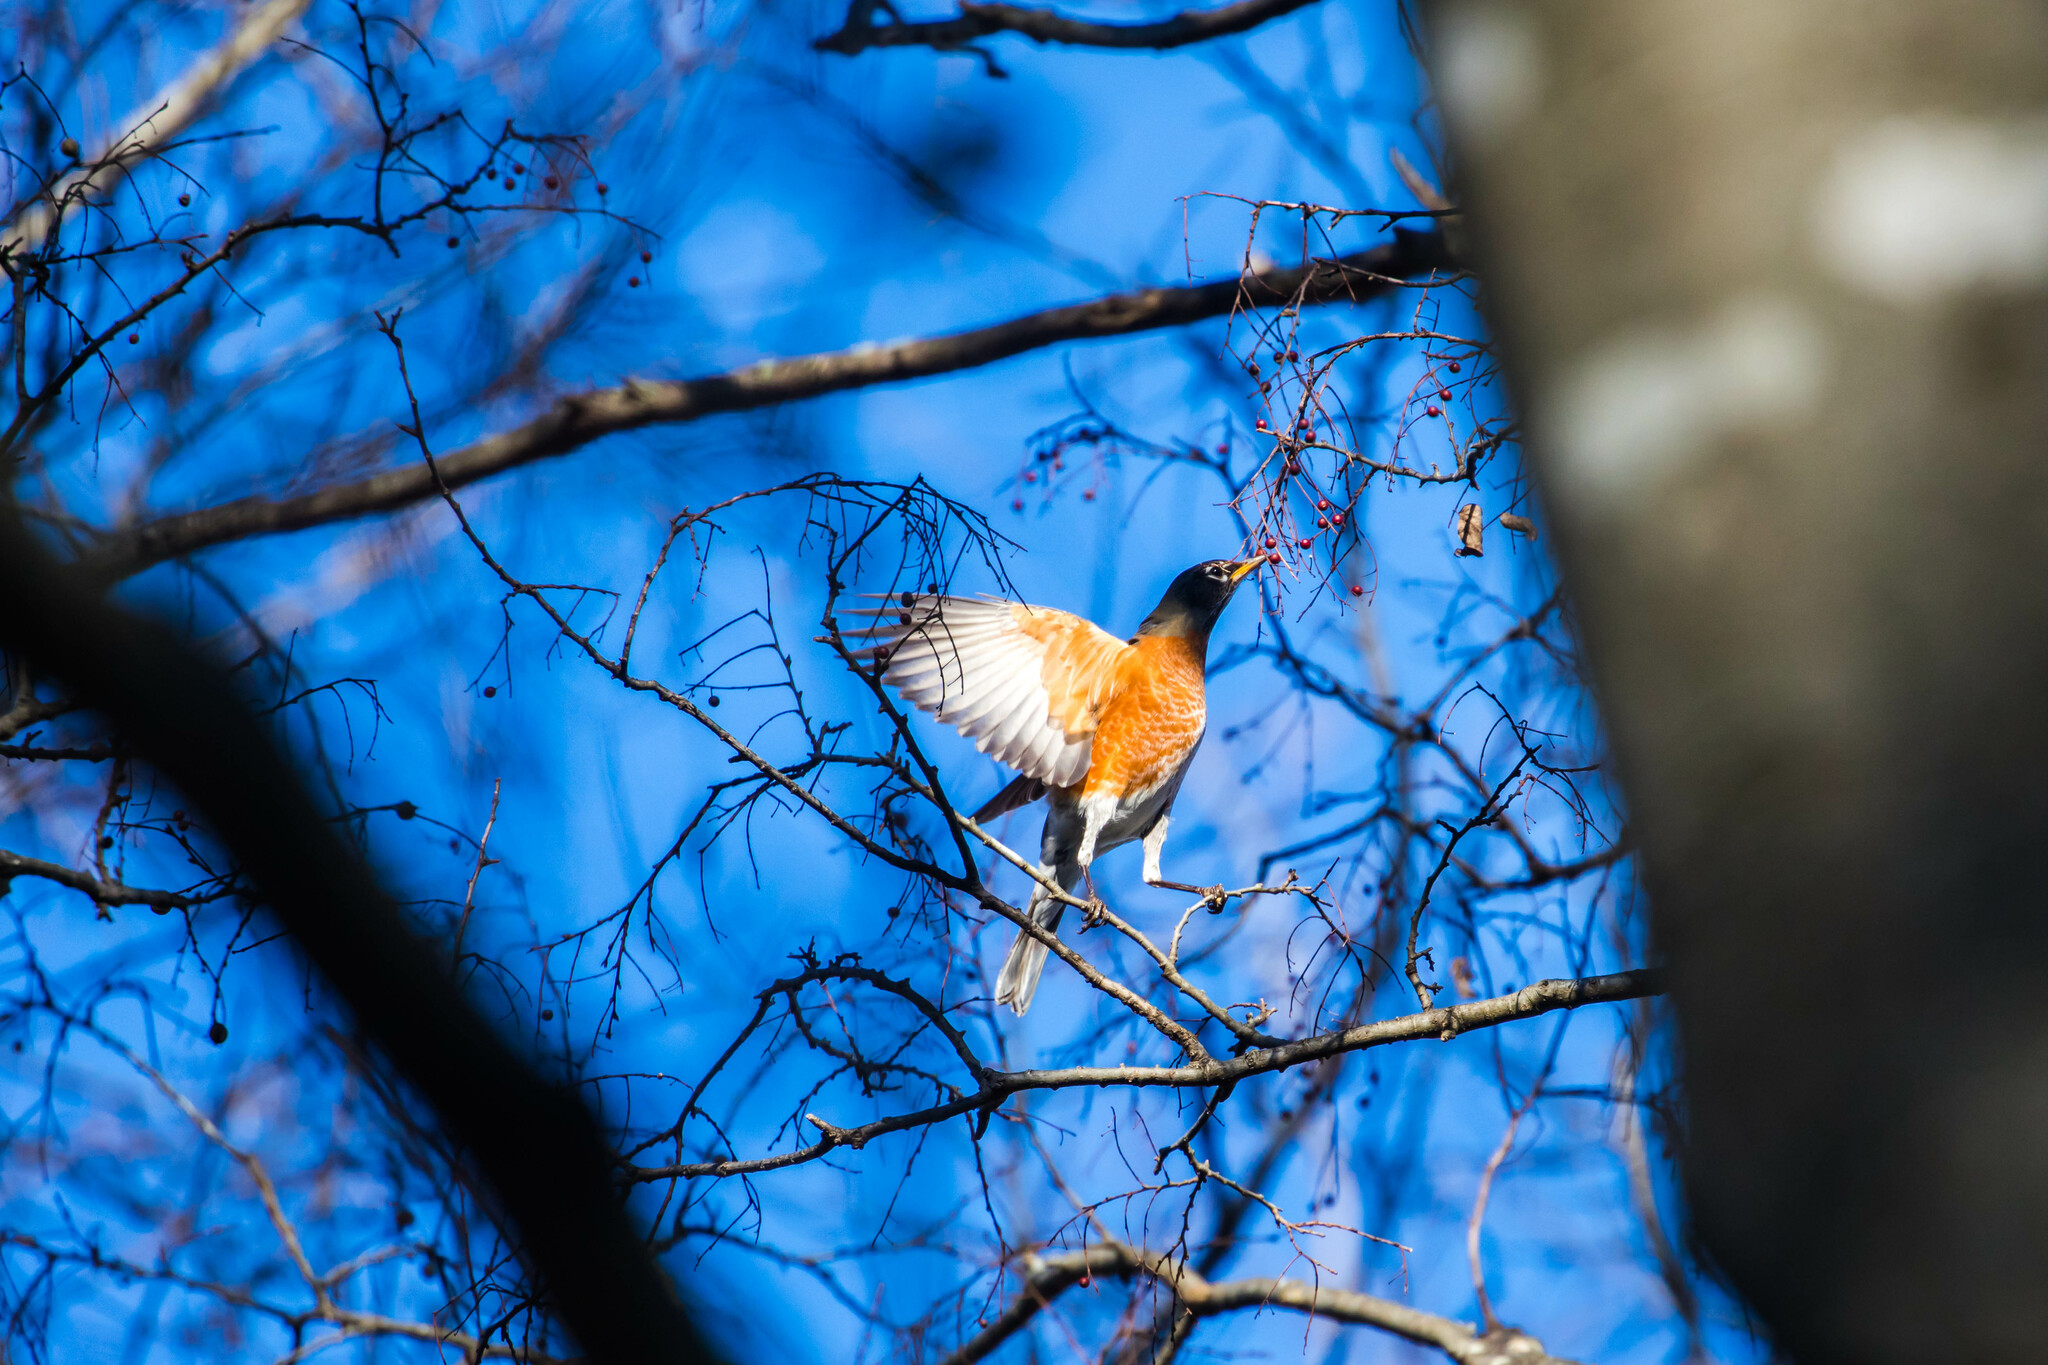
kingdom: Animalia
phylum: Chordata
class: Aves
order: Passeriformes
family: Turdidae
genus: Turdus
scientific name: Turdus migratorius
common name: American robin
